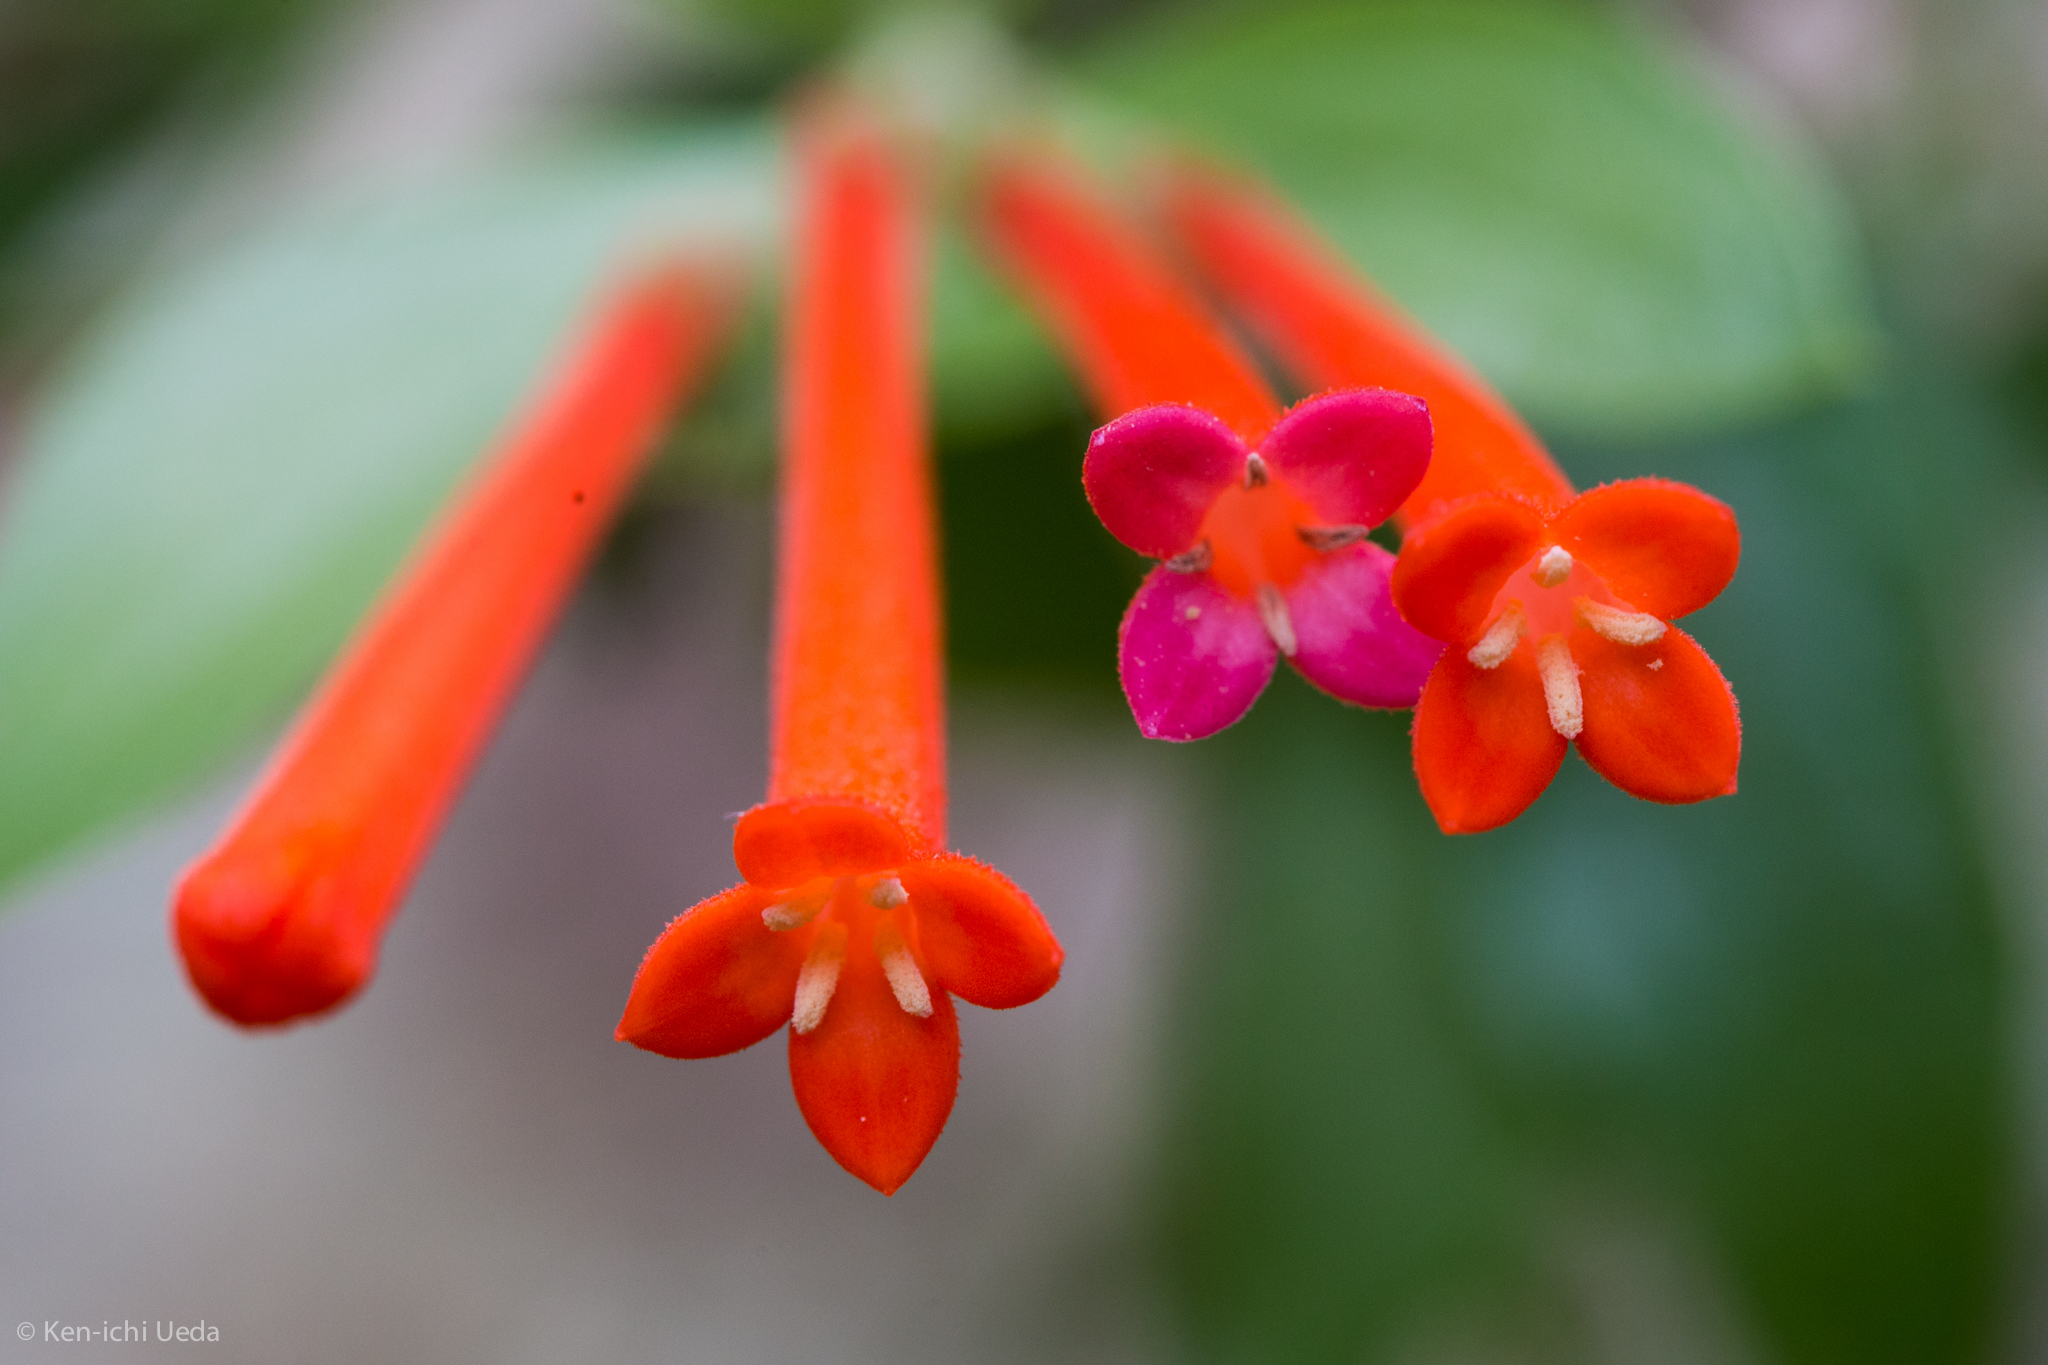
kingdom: Plantae
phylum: Tracheophyta
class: Magnoliopsida
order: Gentianales
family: Rubiaceae
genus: Bouvardia
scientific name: Bouvardia ternifolia
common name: Scarlet bouvardia
